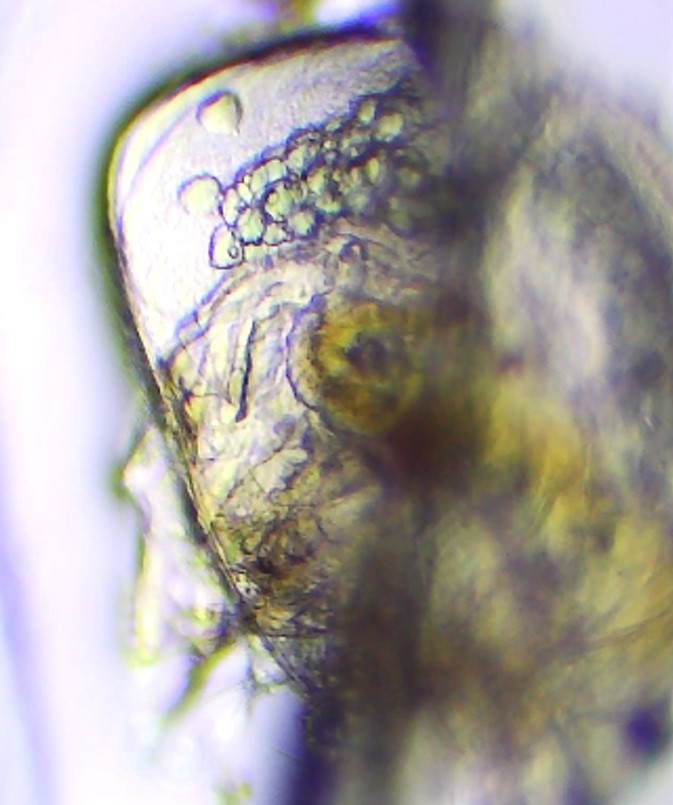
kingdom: Animalia
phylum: Arthropoda
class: Branchiopoda
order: Diplostraca
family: Chydoridae
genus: Alona
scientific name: Alona guttata
